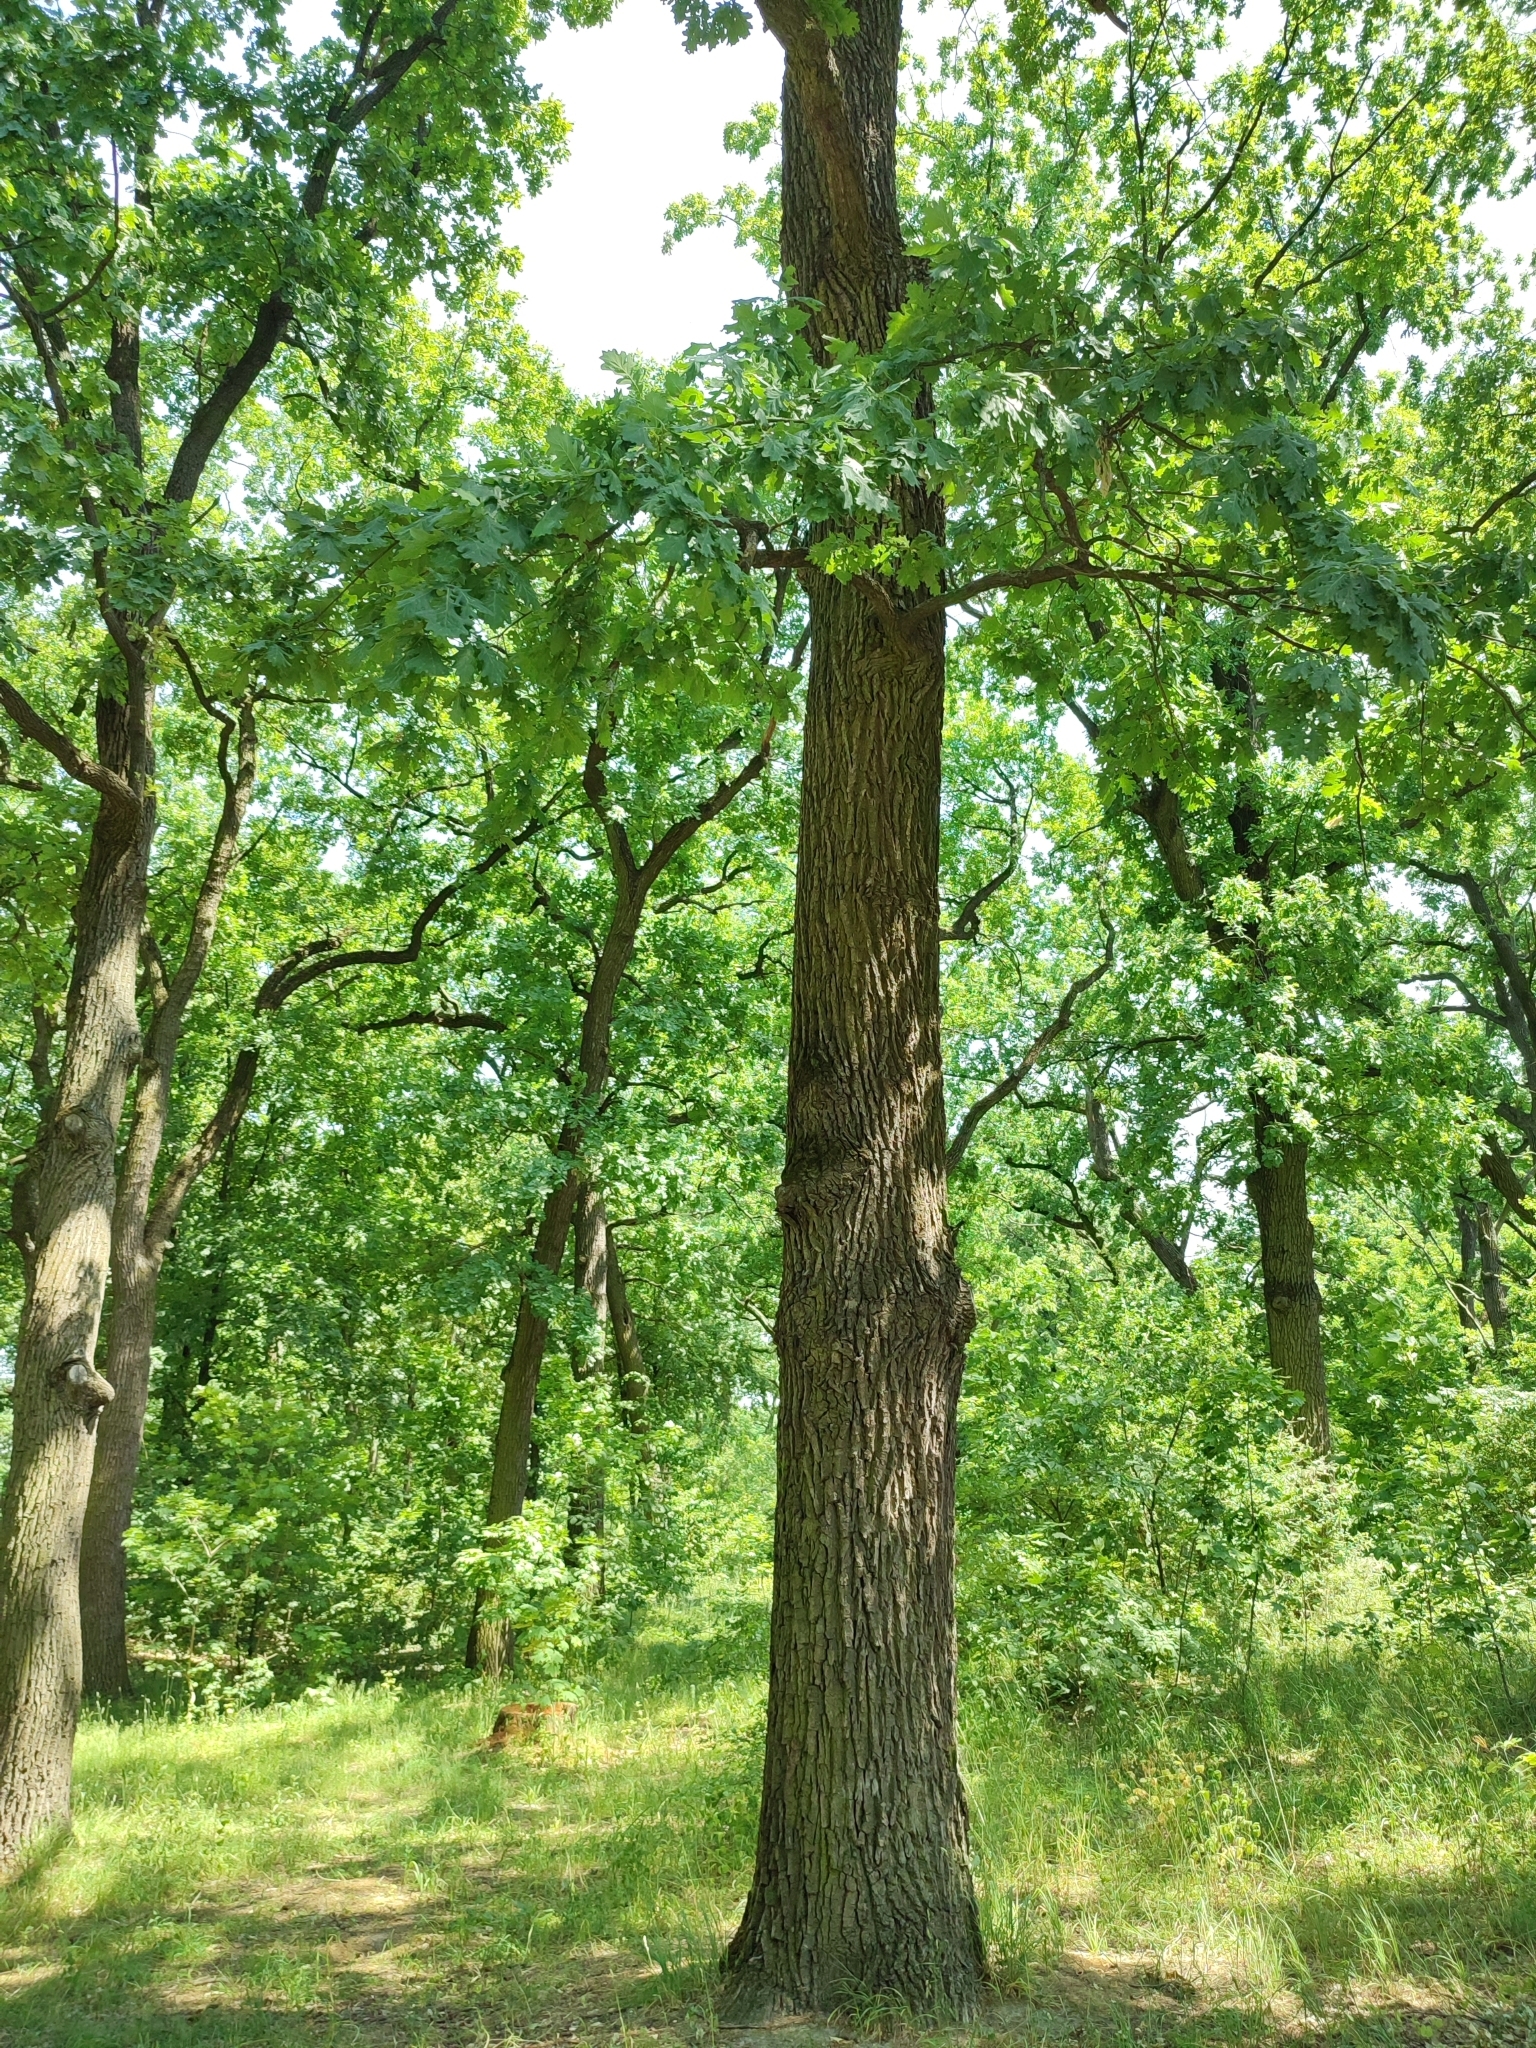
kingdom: Plantae
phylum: Tracheophyta
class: Magnoliopsida
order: Fagales
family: Fagaceae
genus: Quercus
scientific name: Quercus robur
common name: Pedunculate oak
